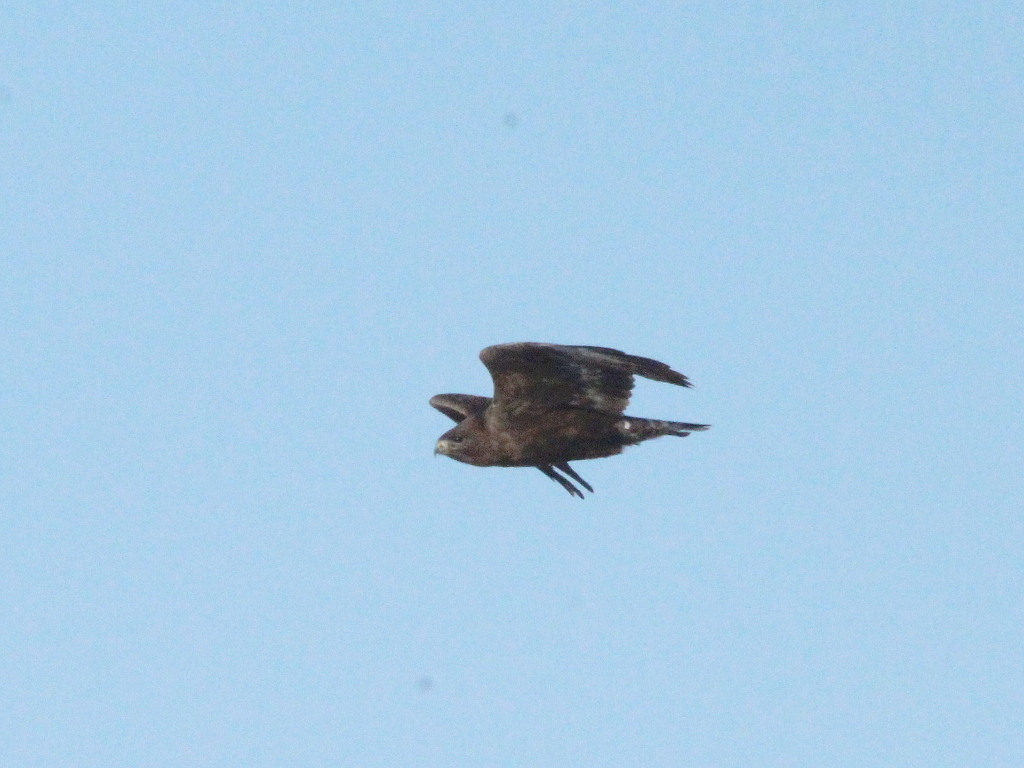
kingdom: Animalia
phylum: Chordata
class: Aves
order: Accipitriformes
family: Accipitridae
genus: Buteo
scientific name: Buteo hemilasius
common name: Upland buzzard
